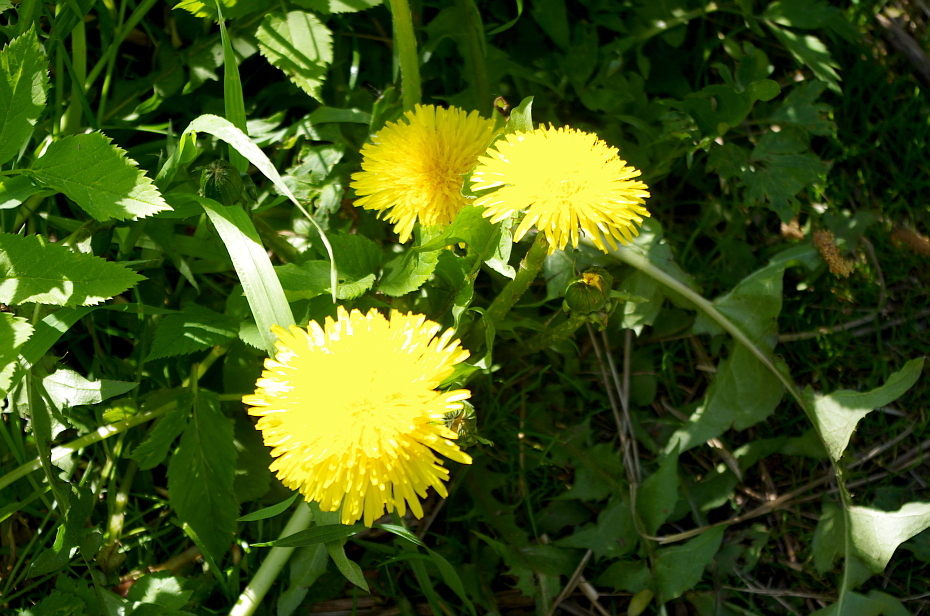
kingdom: Plantae
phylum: Tracheophyta
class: Magnoliopsida
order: Asterales
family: Asteraceae
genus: Taraxacum
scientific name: Taraxacum officinale
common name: Common dandelion
